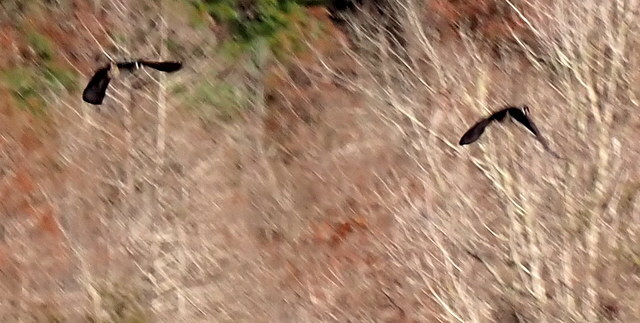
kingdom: Animalia
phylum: Chordata
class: Aves
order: Anseriformes
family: Anatidae
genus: Aix
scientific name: Aix sponsa
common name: Wood duck
